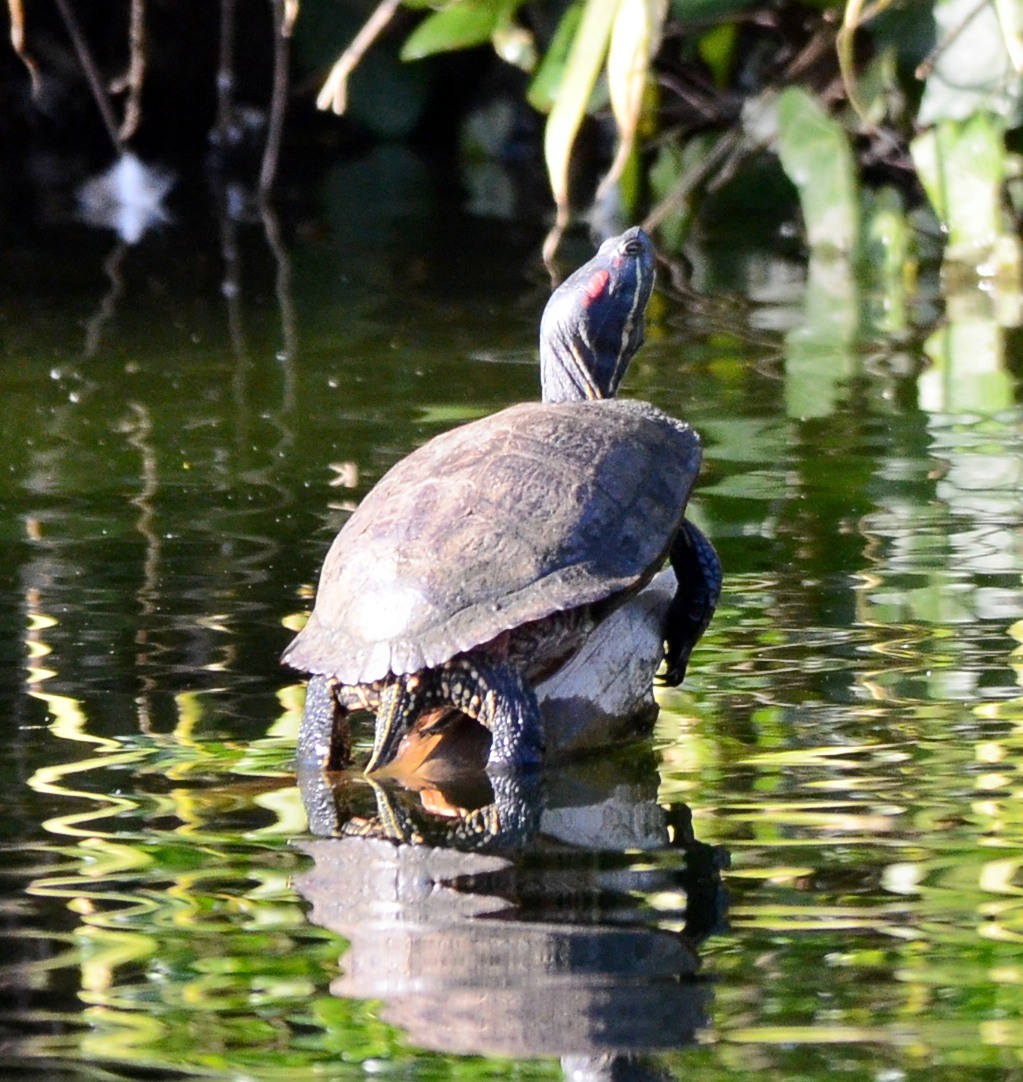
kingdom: Animalia
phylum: Chordata
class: Testudines
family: Emydidae
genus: Trachemys
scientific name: Trachemys scripta
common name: Slider
